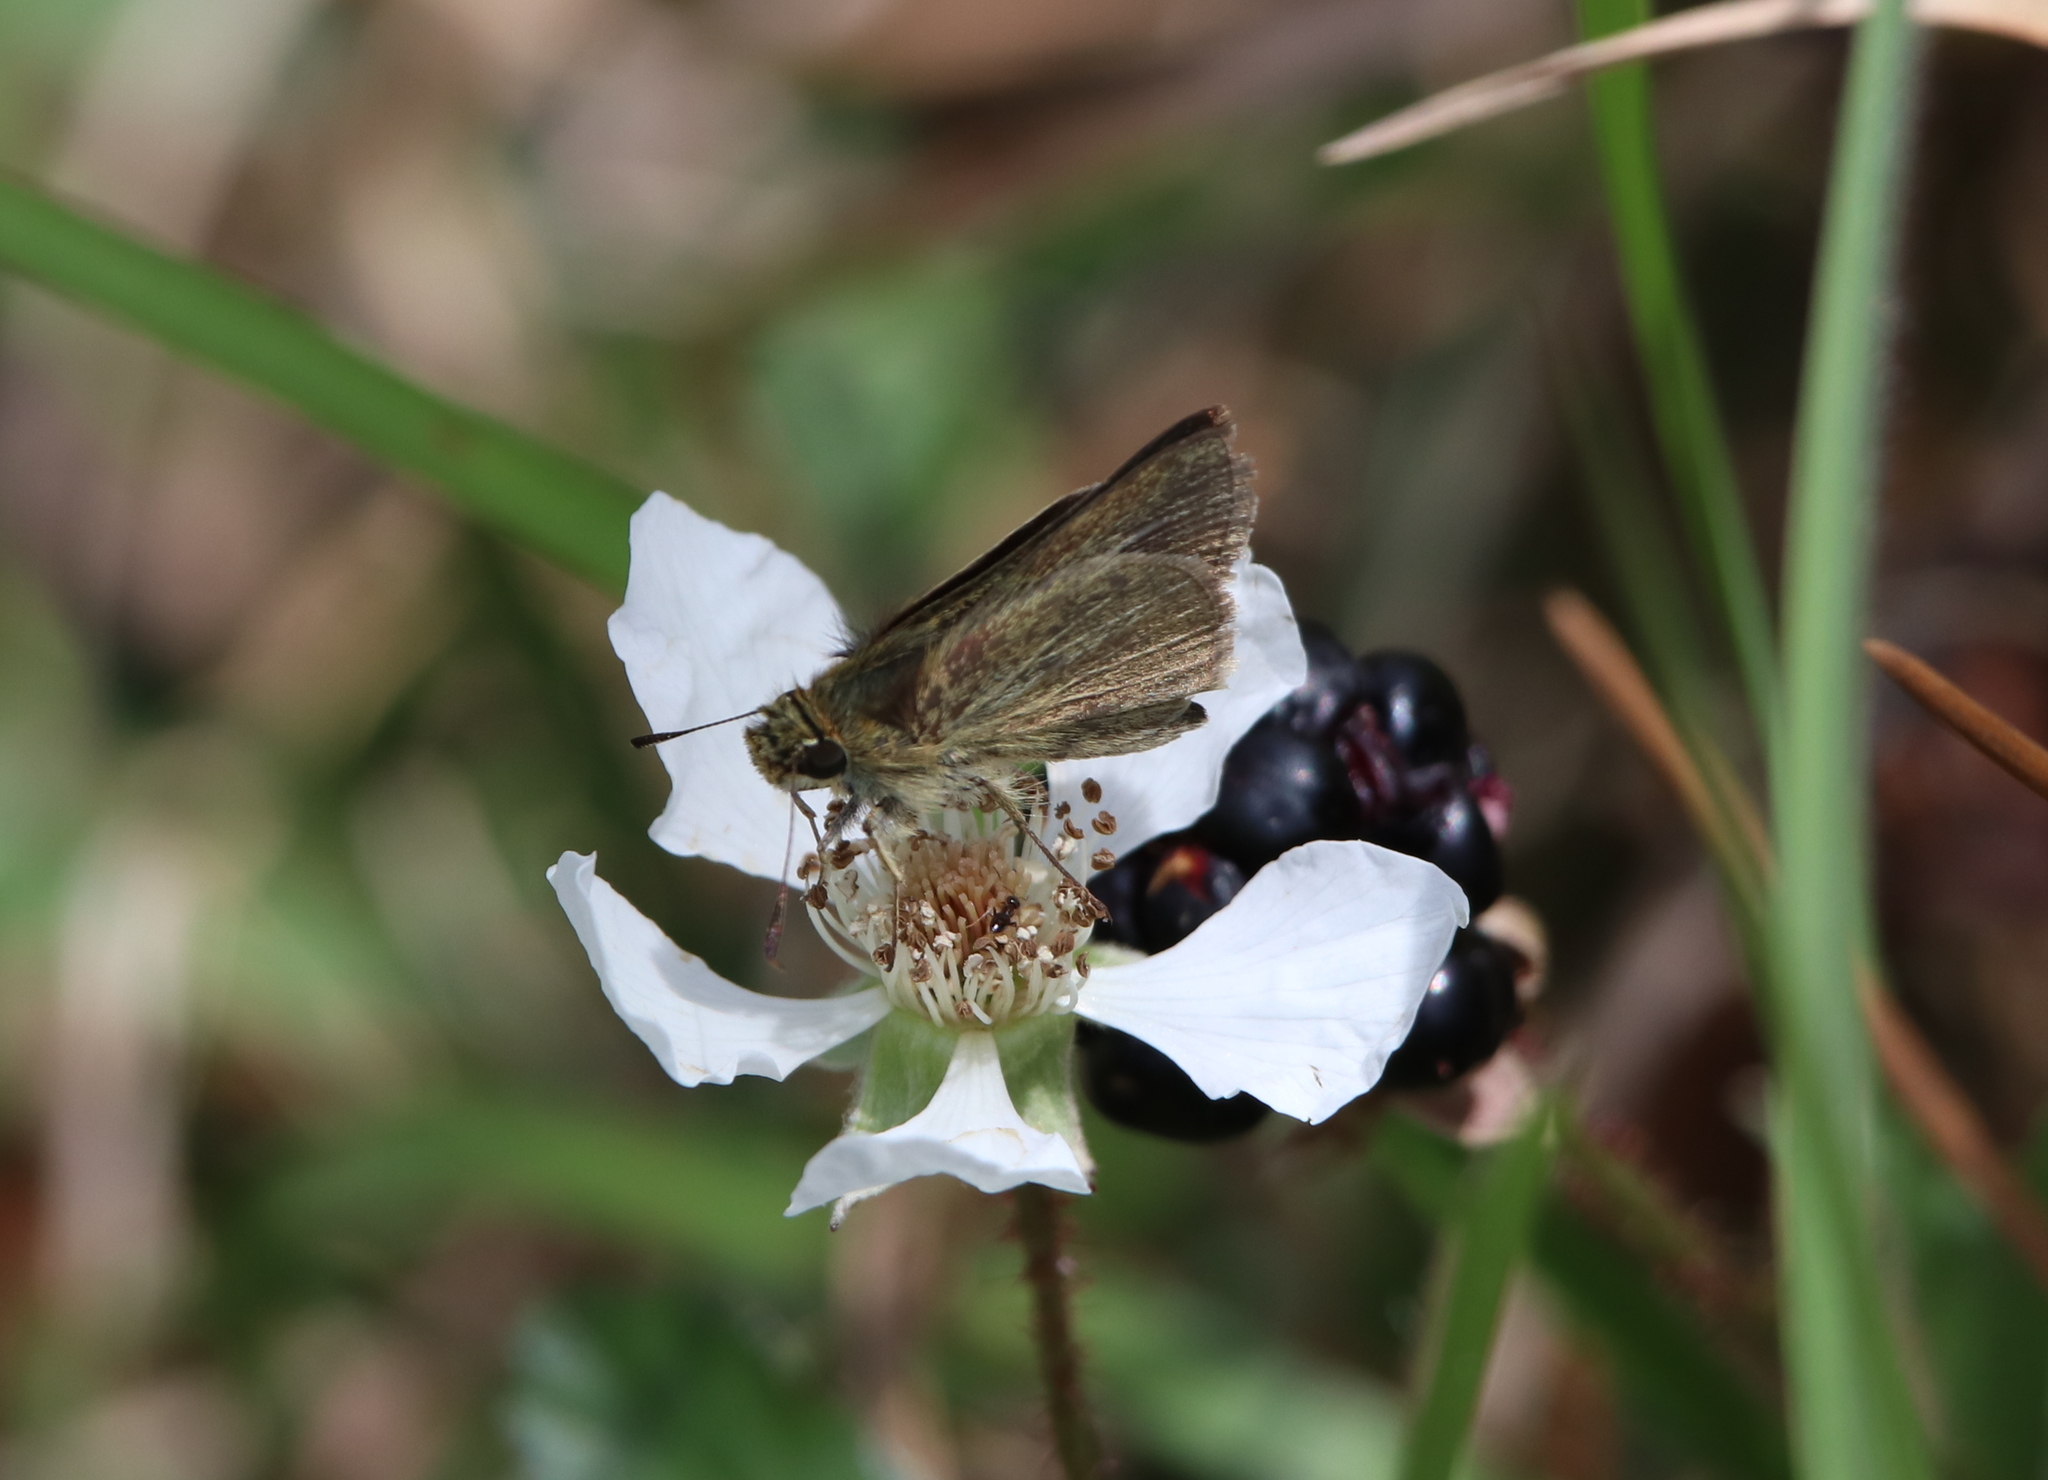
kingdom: Animalia
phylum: Arthropoda
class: Insecta
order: Lepidoptera
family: Hesperiidae
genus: Euphyes
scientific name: Euphyes vestris
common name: Dun skipper
